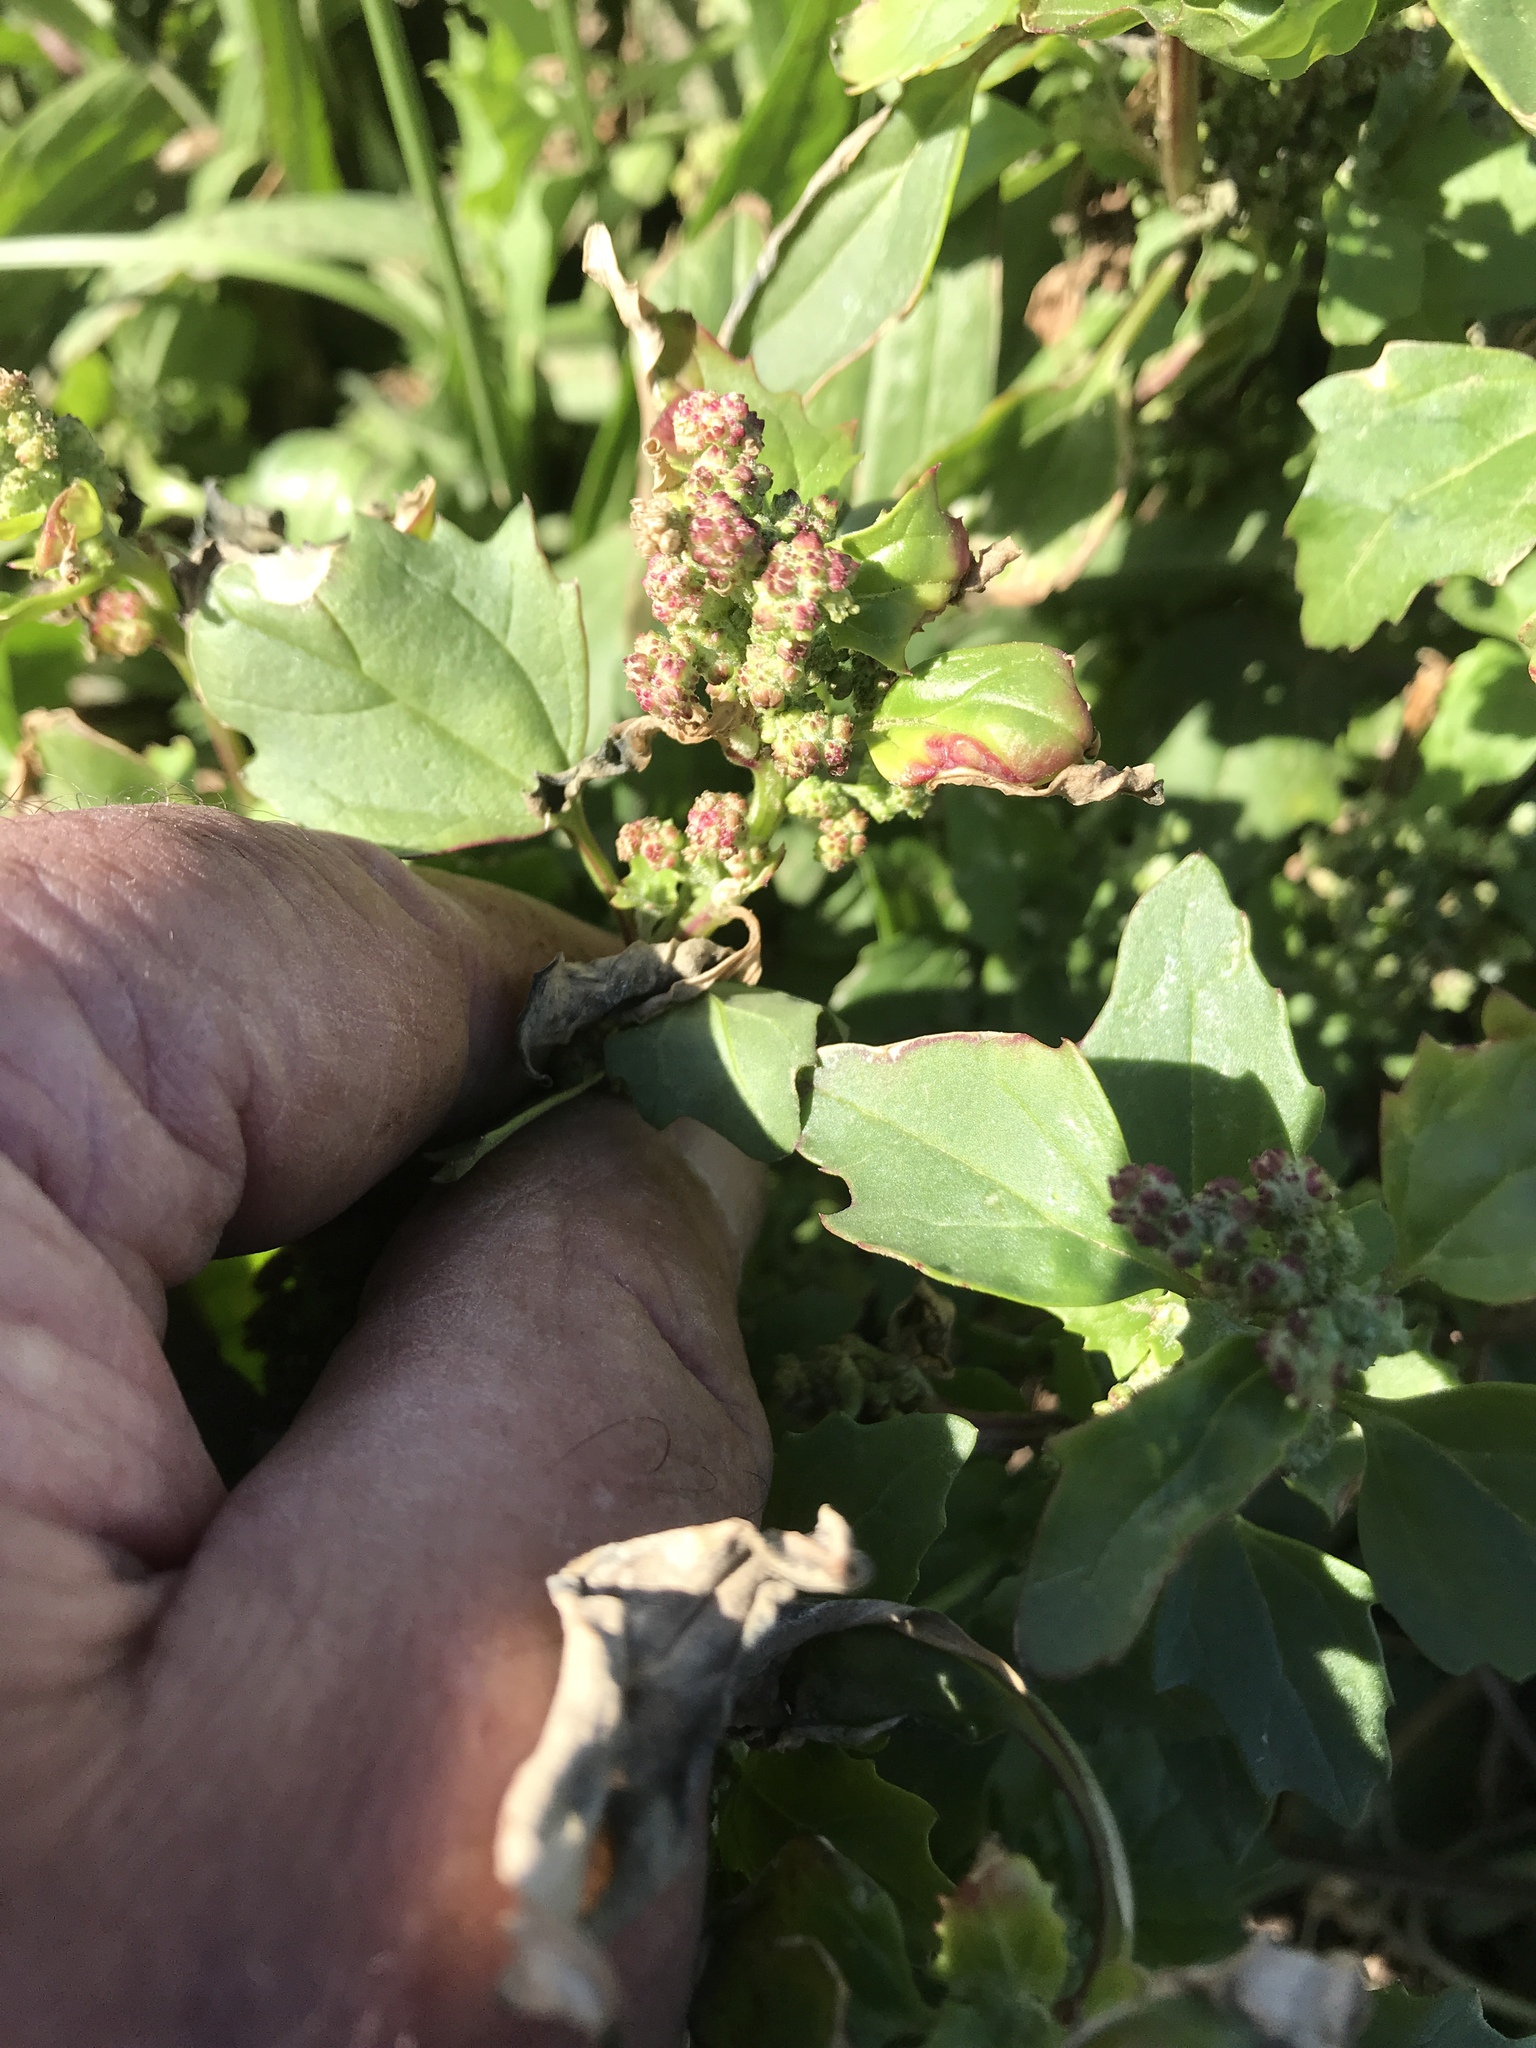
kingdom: Plantae
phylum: Tracheophyta
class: Magnoliopsida
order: Caryophyllales
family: Amaranthaceae
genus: Chenopodiastrum
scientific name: Chenopodiastrum murale
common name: Sowbane
